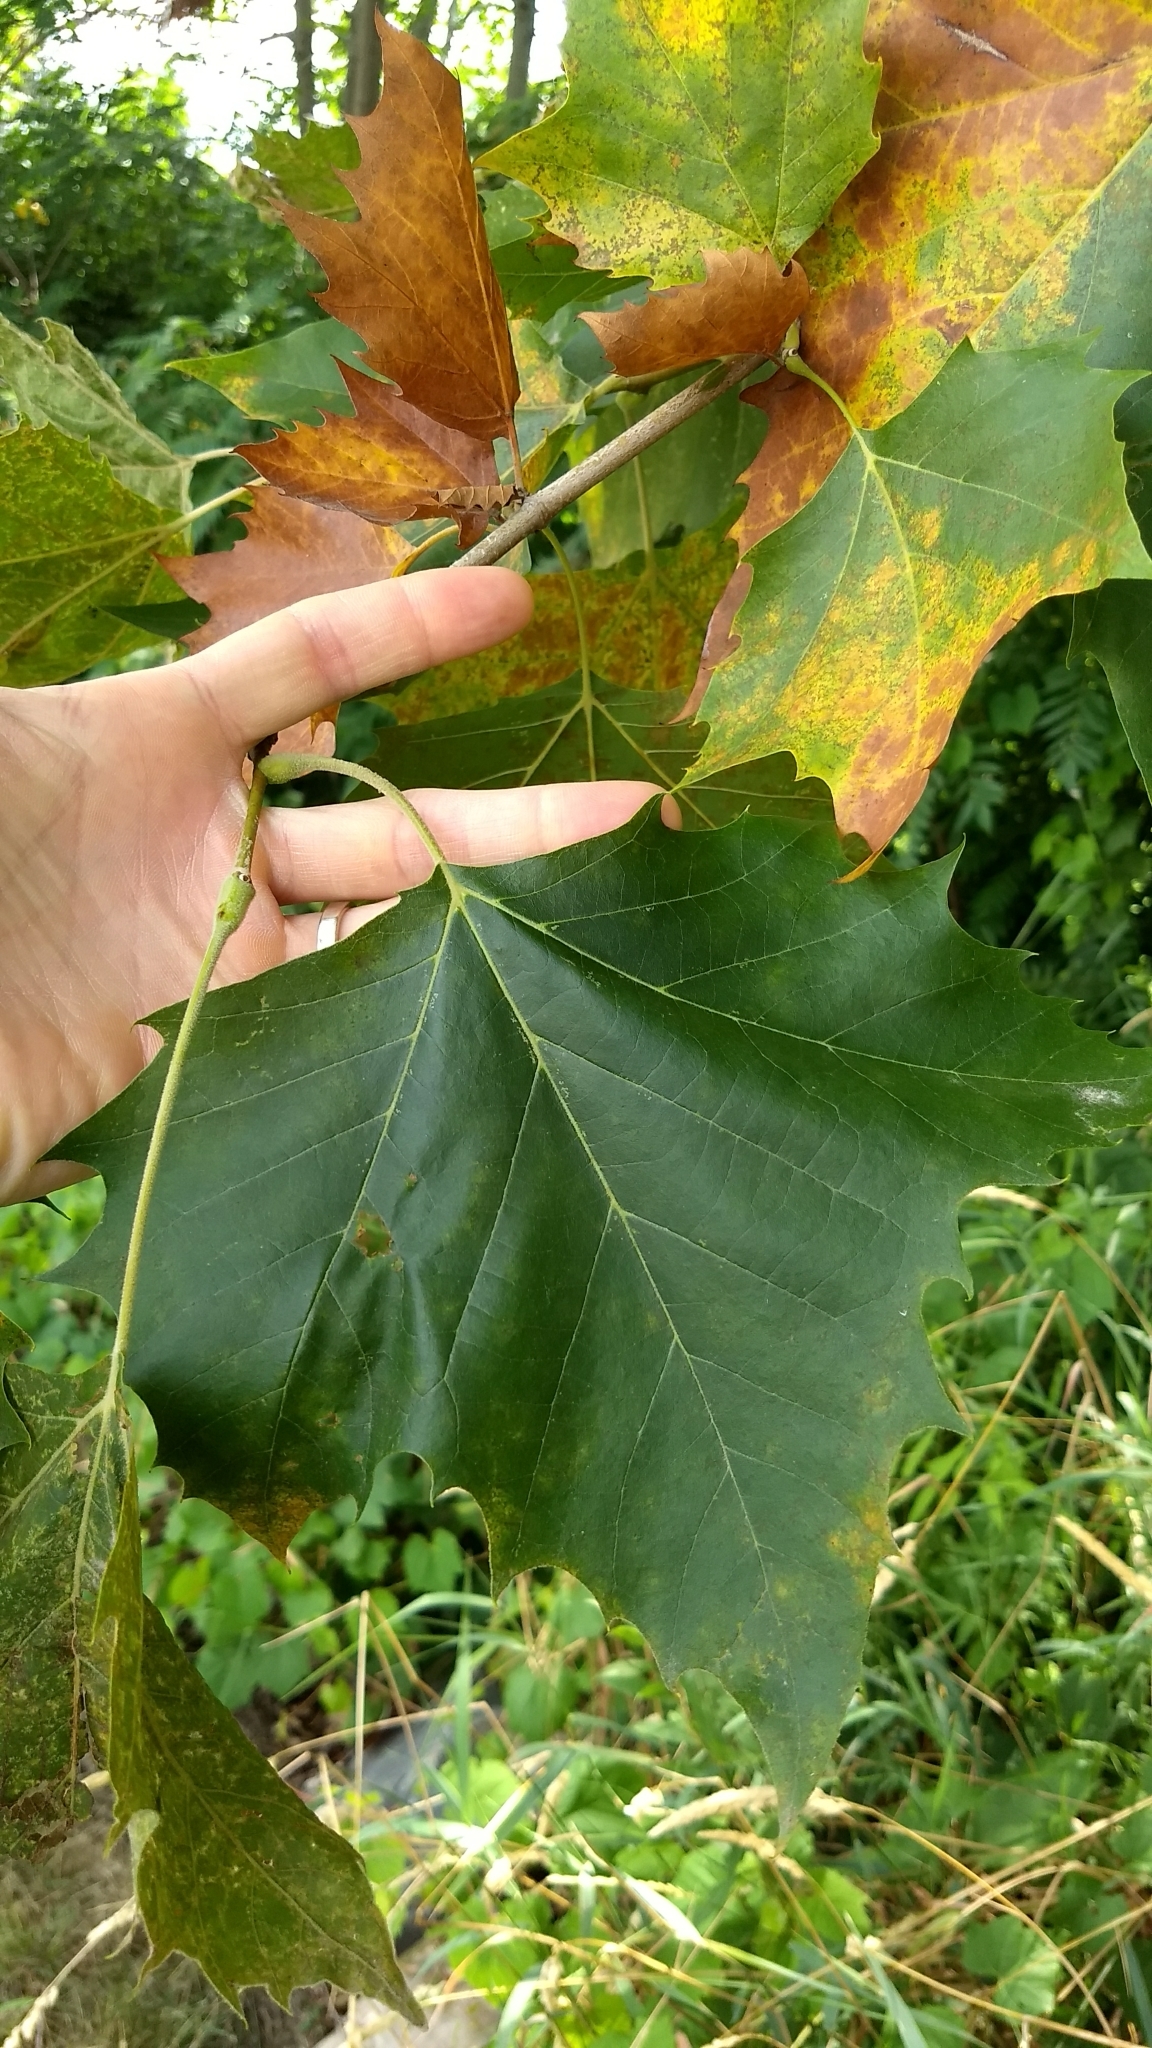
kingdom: Plantae
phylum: Tracheophyta
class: Magnoliopsida
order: Proteales
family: Platanaceae
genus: Platanus
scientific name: Platanus occidentalis
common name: American sycamore
